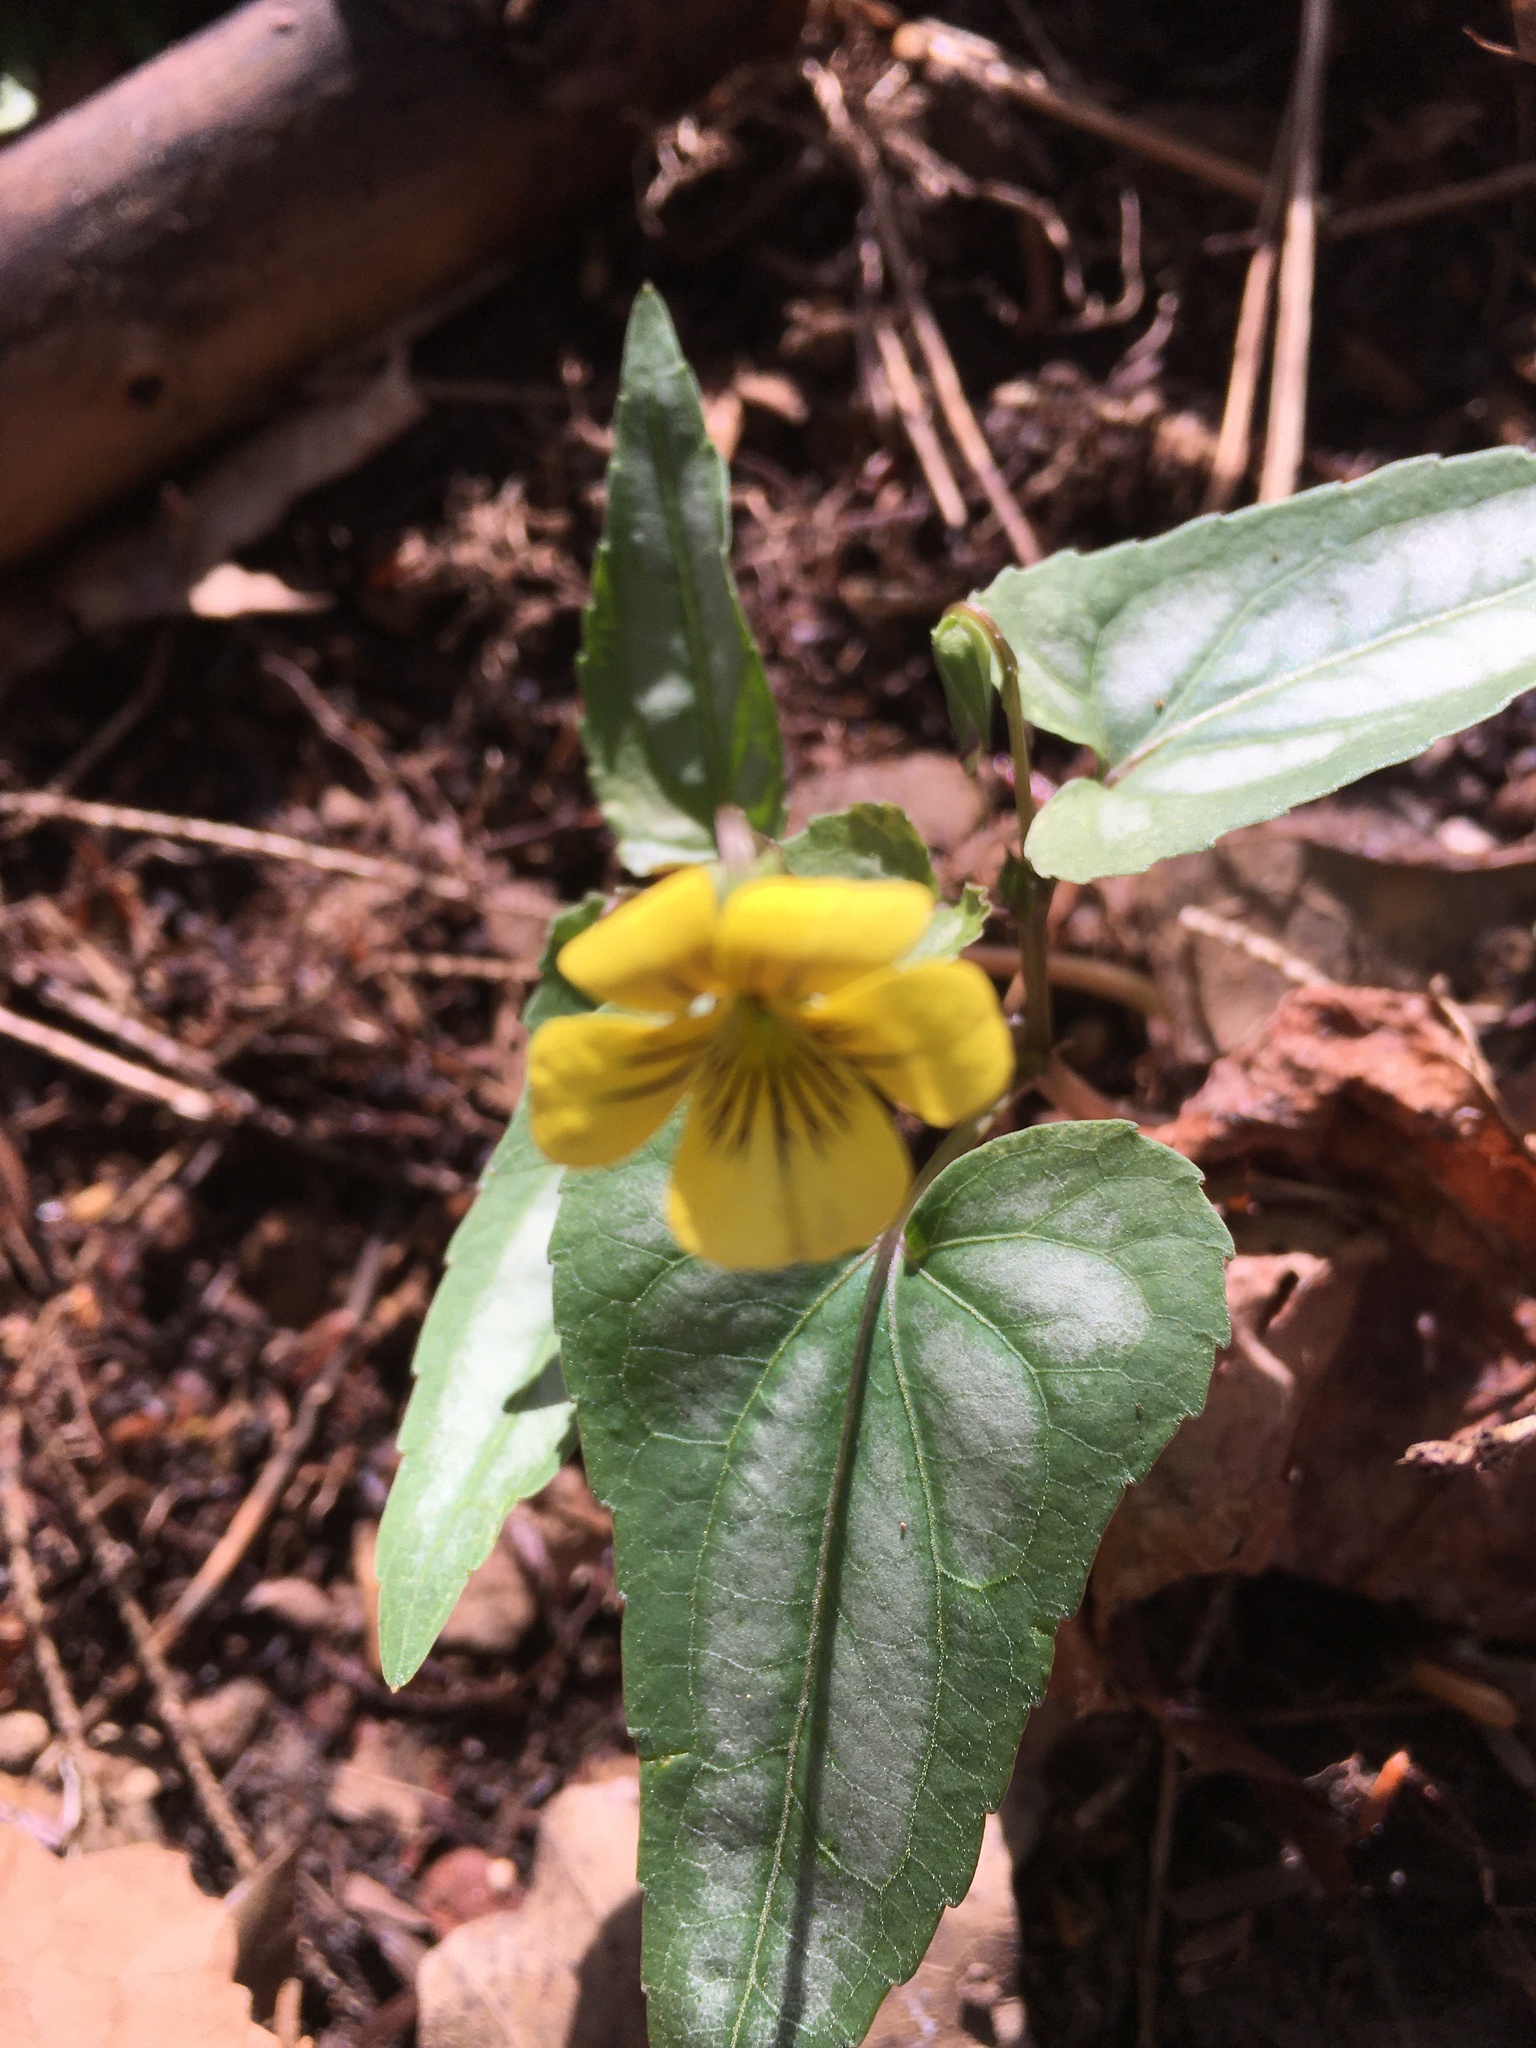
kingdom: Plantae
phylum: Tracheophyta
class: Magnoliopsida
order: Malpighiales
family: Violaceae
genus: Viola
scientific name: Viola hastata
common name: Spear-leaf violet
